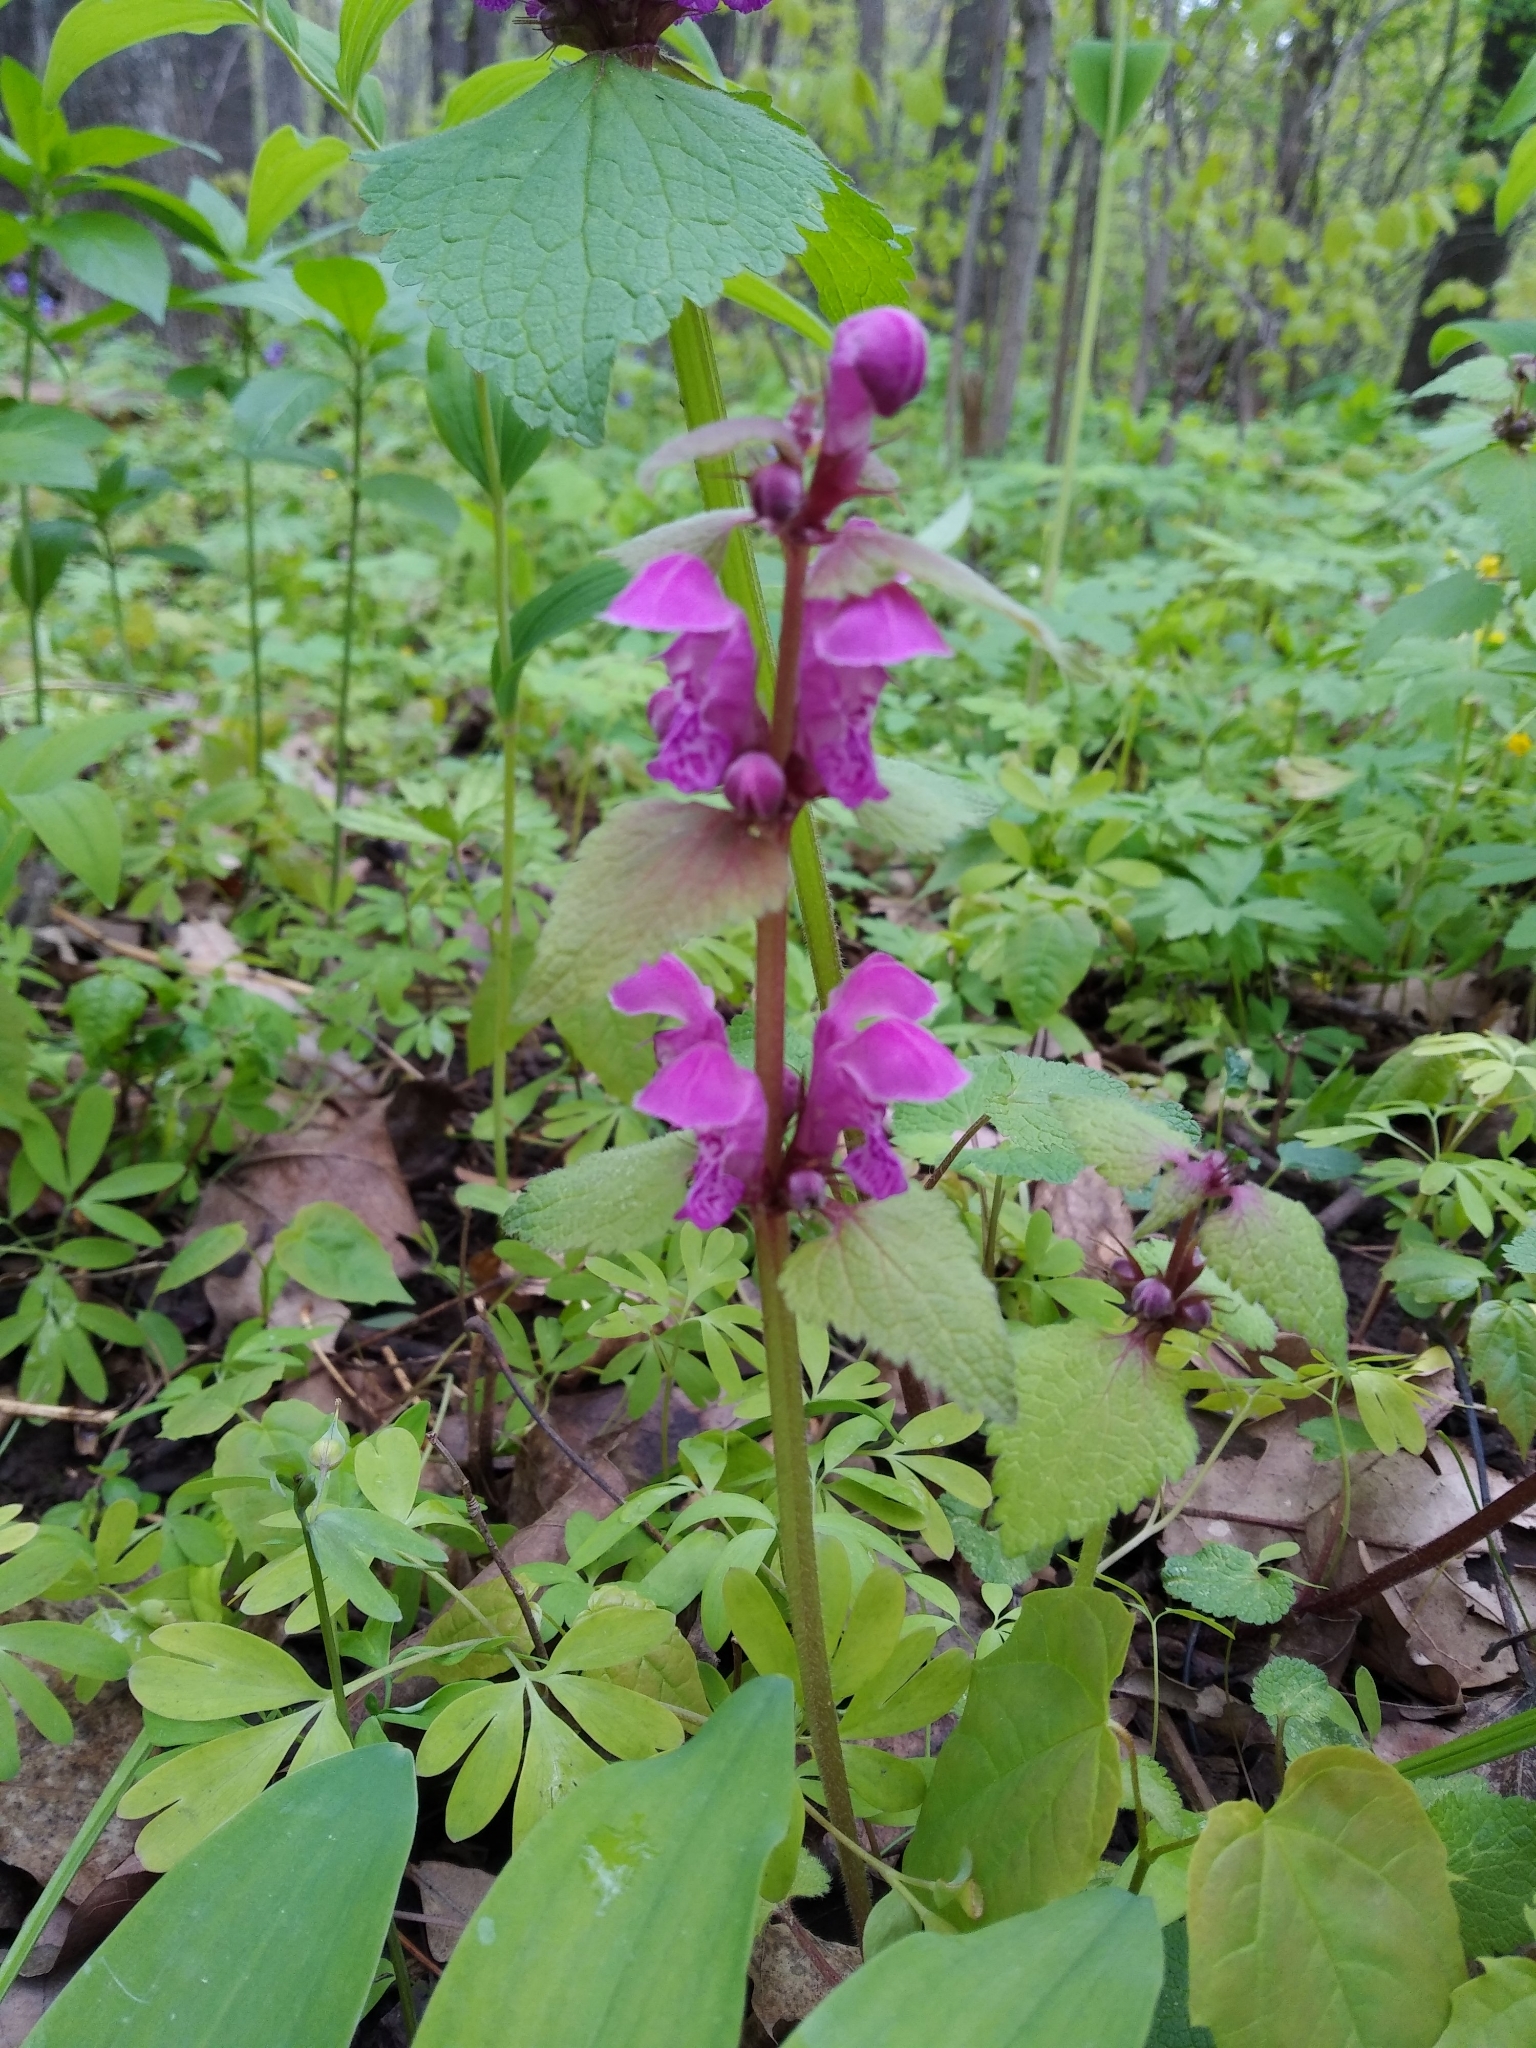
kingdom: Plantae
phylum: Tracheophyta
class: Magnoliopsida
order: Lamiales
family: Lamiaceae
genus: Lamium
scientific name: Lamium maculatum
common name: Spotted dead-nettle
